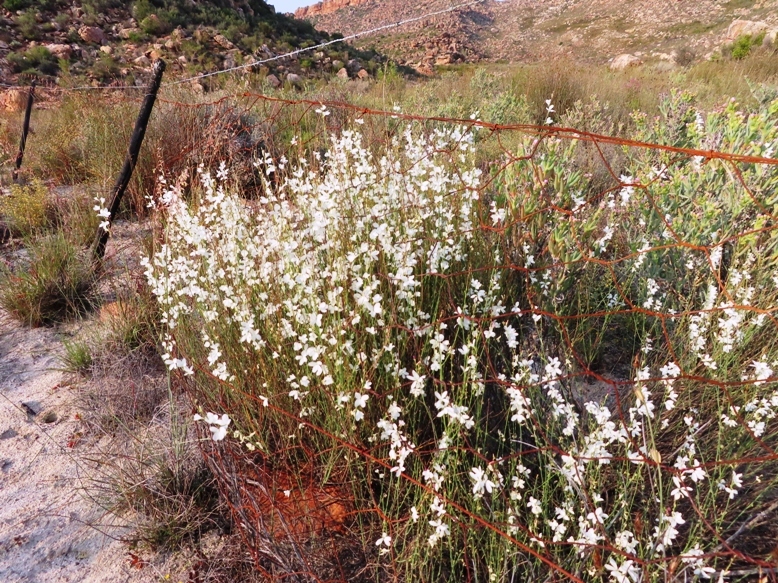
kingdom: Plantae
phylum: Tracheophyta
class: Magnoliopsida
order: Brassicales
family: Brassicaceae
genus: Heliophila
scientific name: Heliophila juncea
